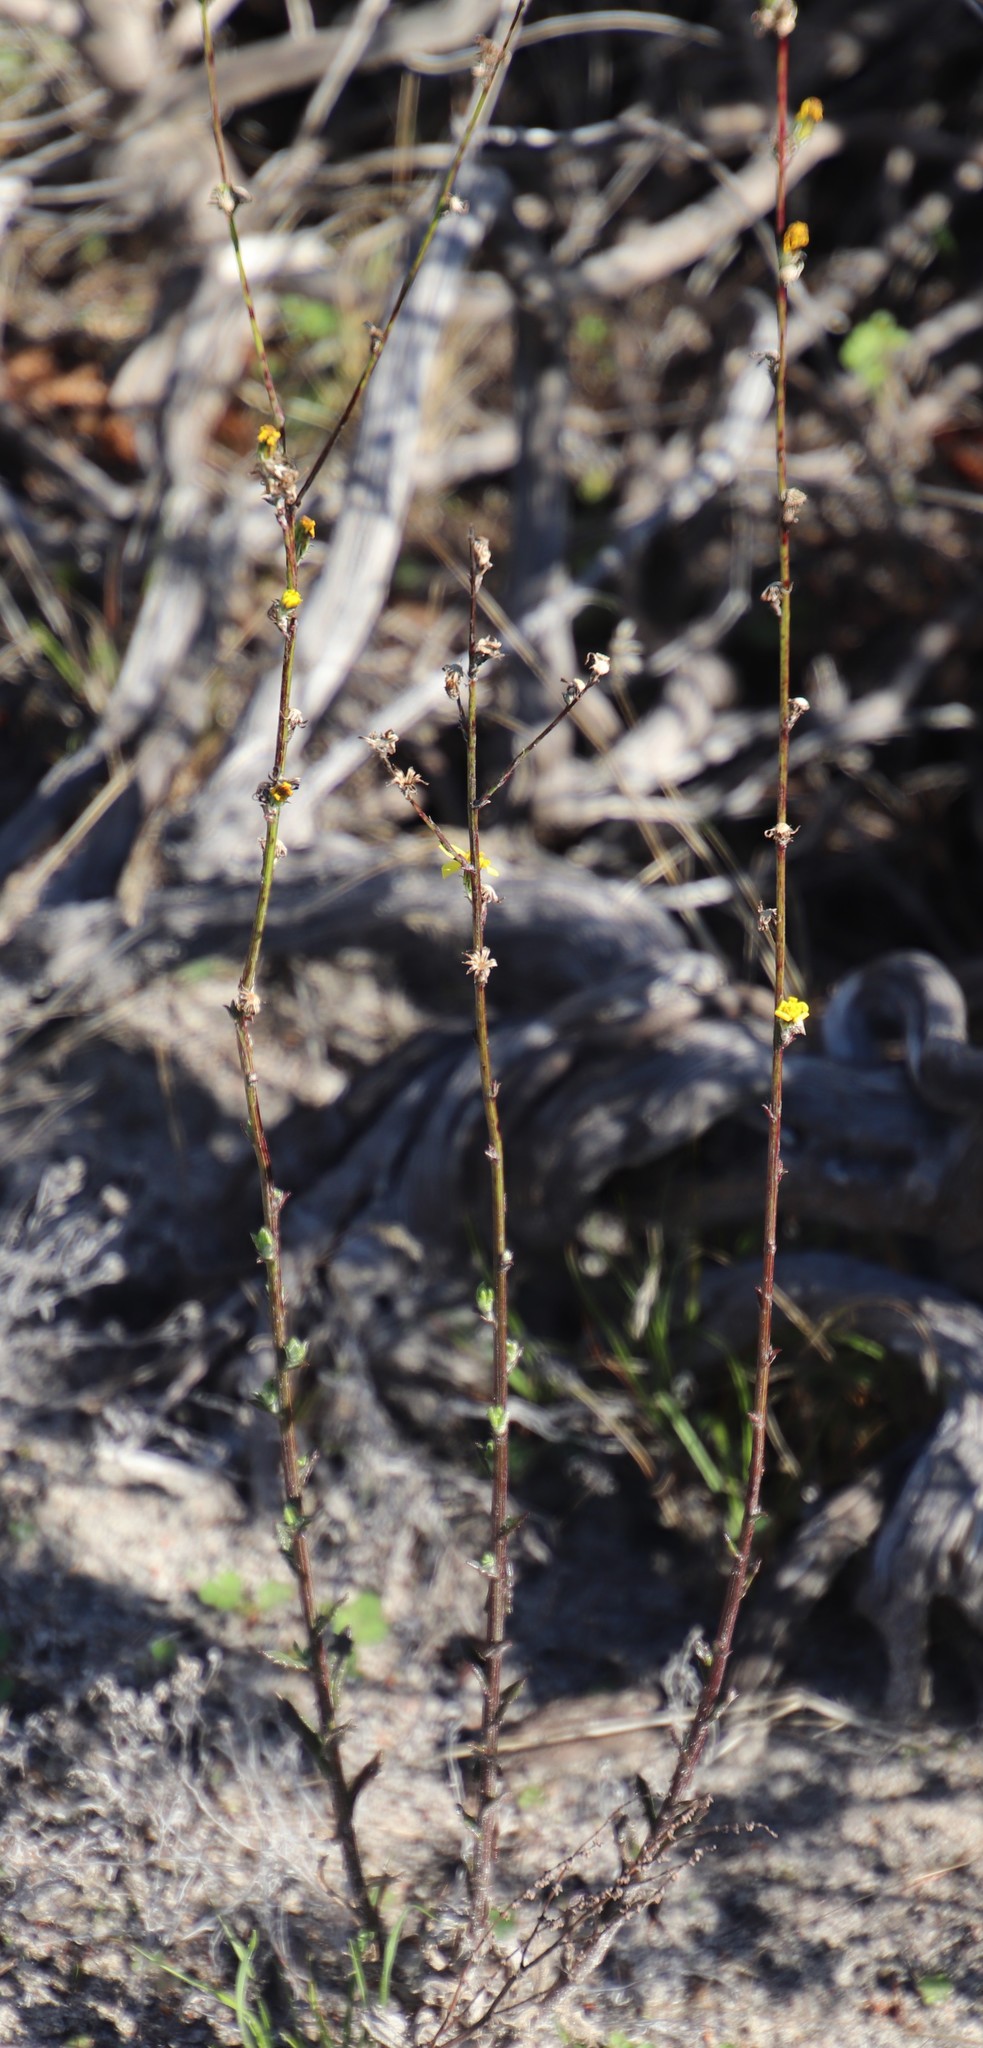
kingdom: Plantae
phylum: Tracheophyta
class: Magnoliopsida
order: Asterales
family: Asteraceae
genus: Senecio
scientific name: Senecio pubigerus
